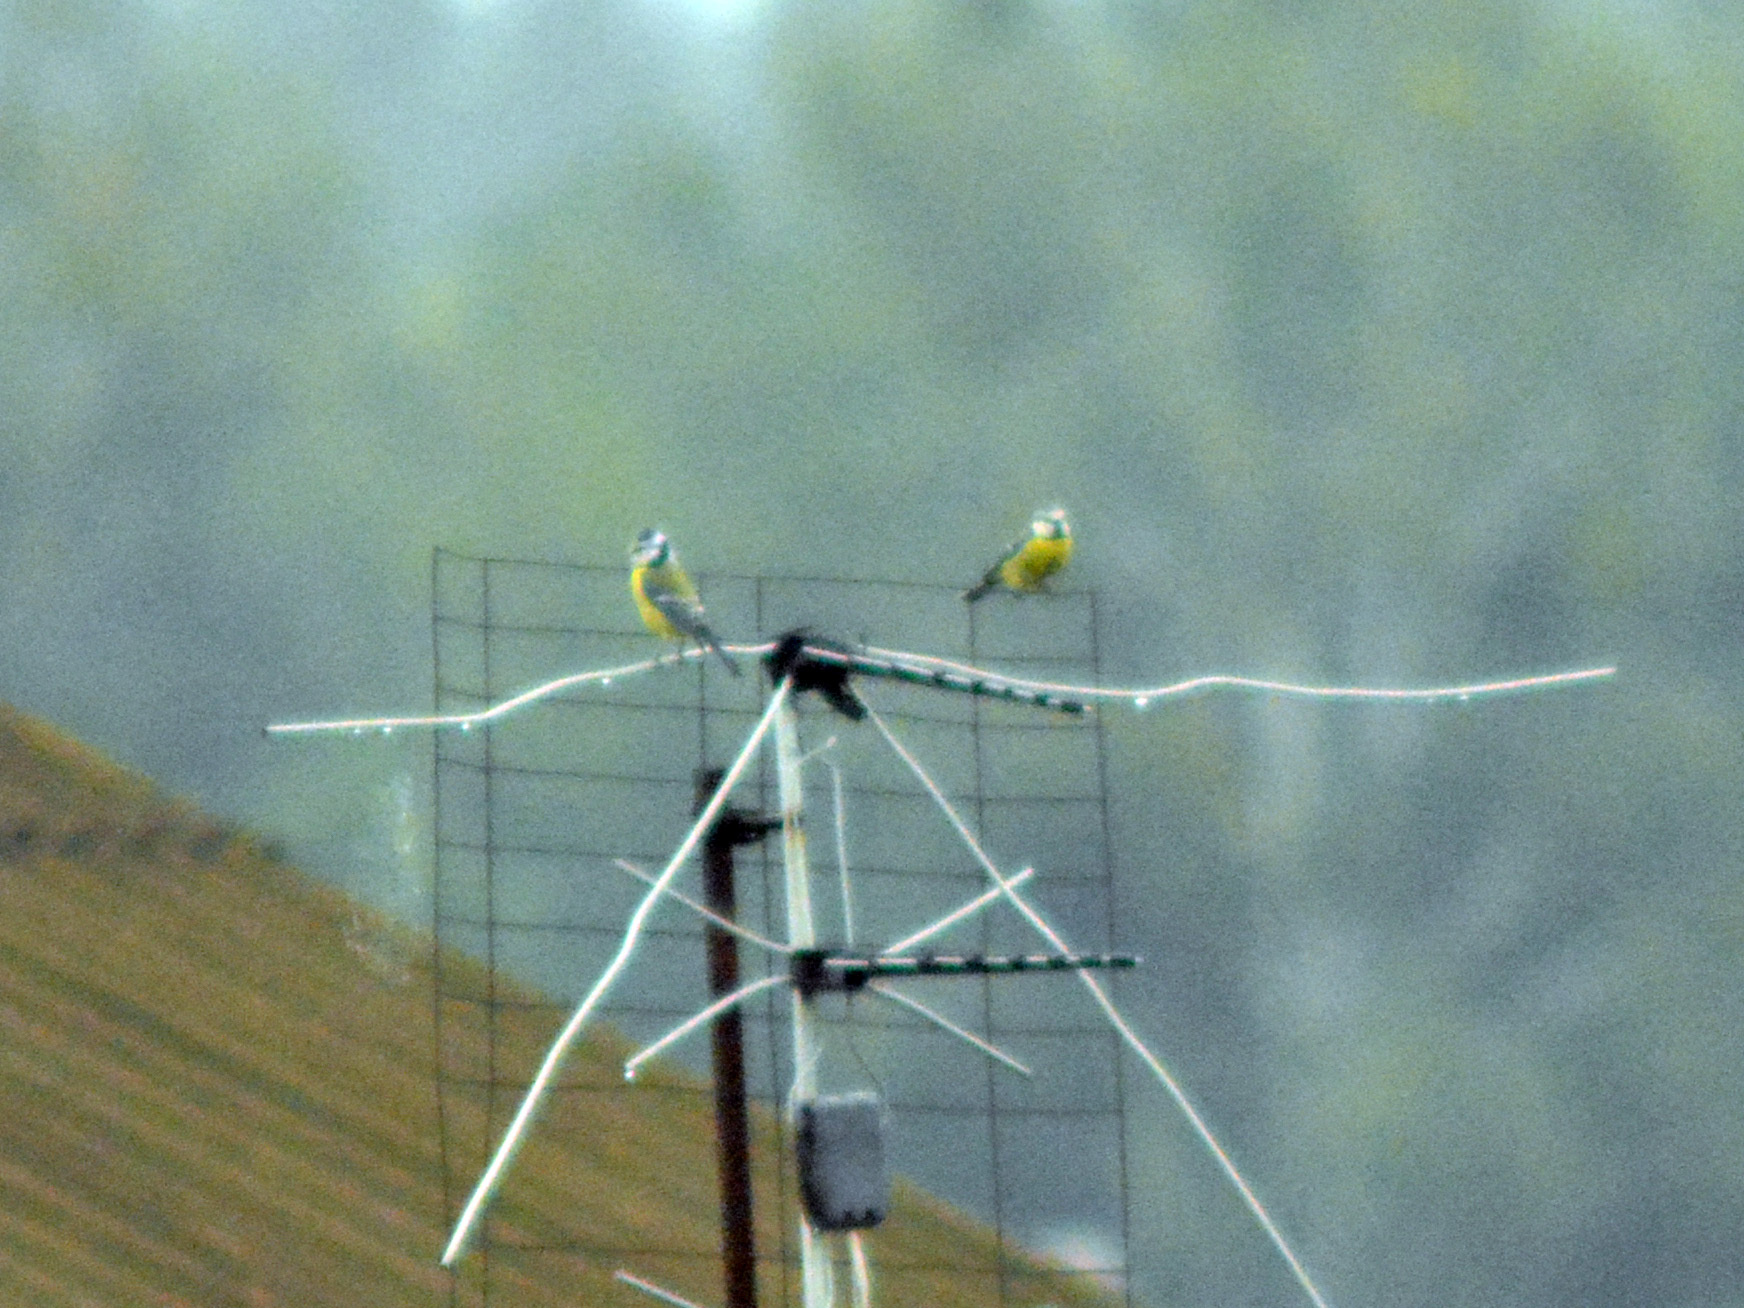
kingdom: Animalia
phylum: Chordata
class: Aves
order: Passeriformes
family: Paridae
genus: Cyanistes
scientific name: Cyanistes caeruleus
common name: Eurasian blue tit
